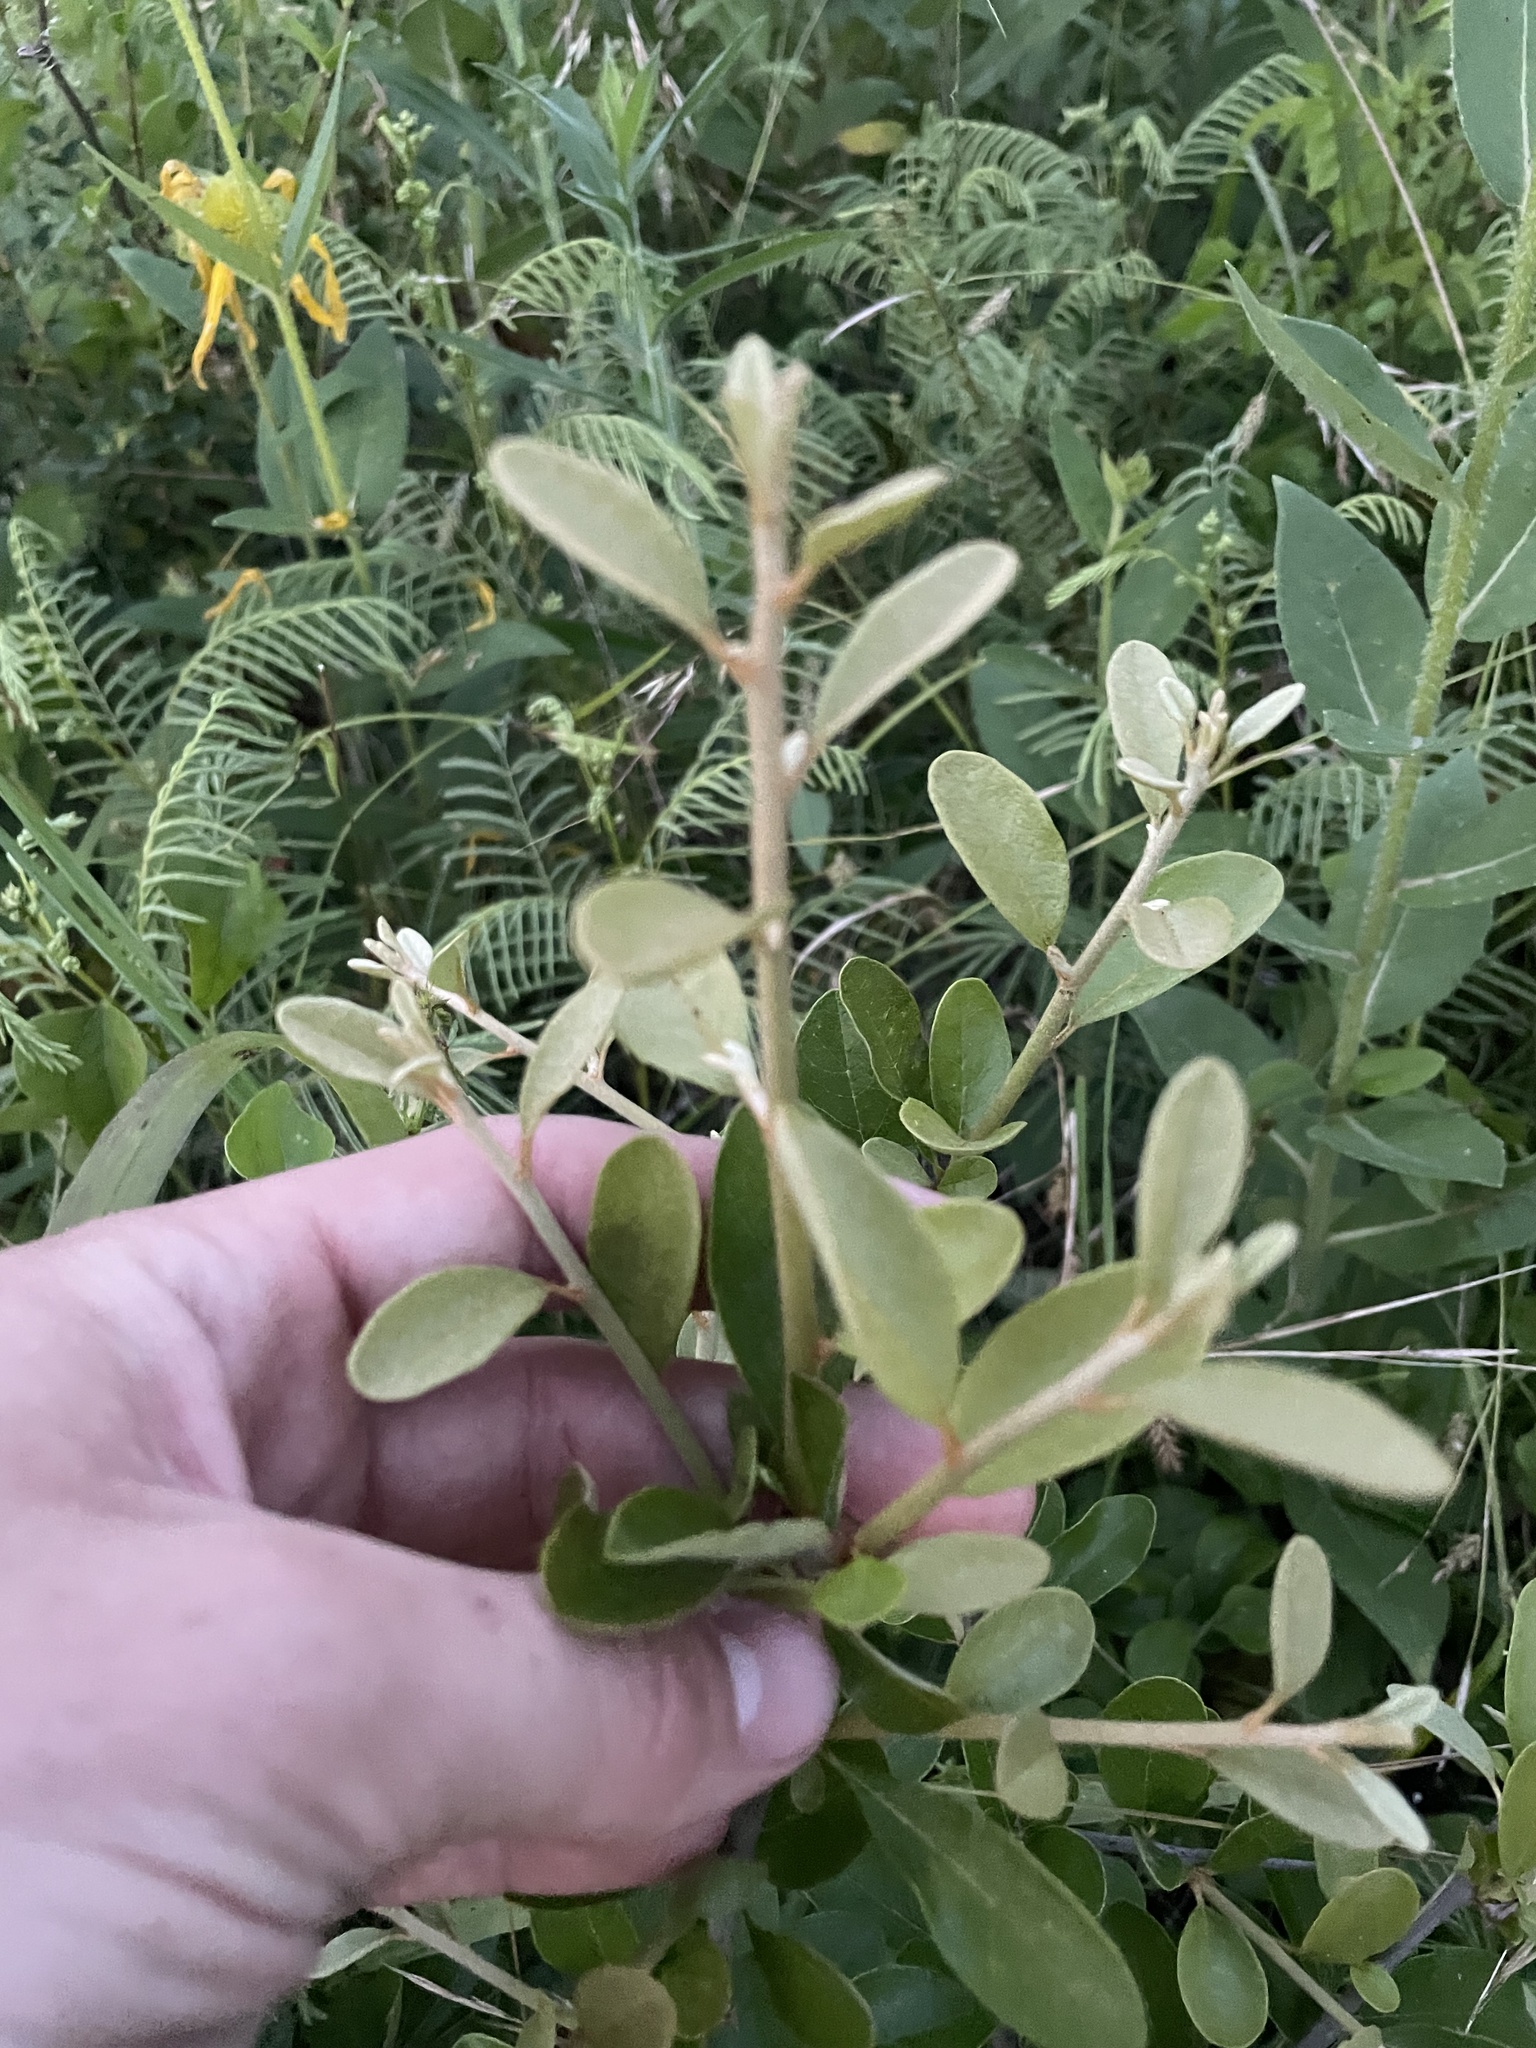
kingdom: Plantae
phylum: Tracheophyta
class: Magnoliopsida
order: Ericales
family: Sapotaceae
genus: Sideroxylon
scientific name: Sideroxylon lanuginosum
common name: Chittamwood
